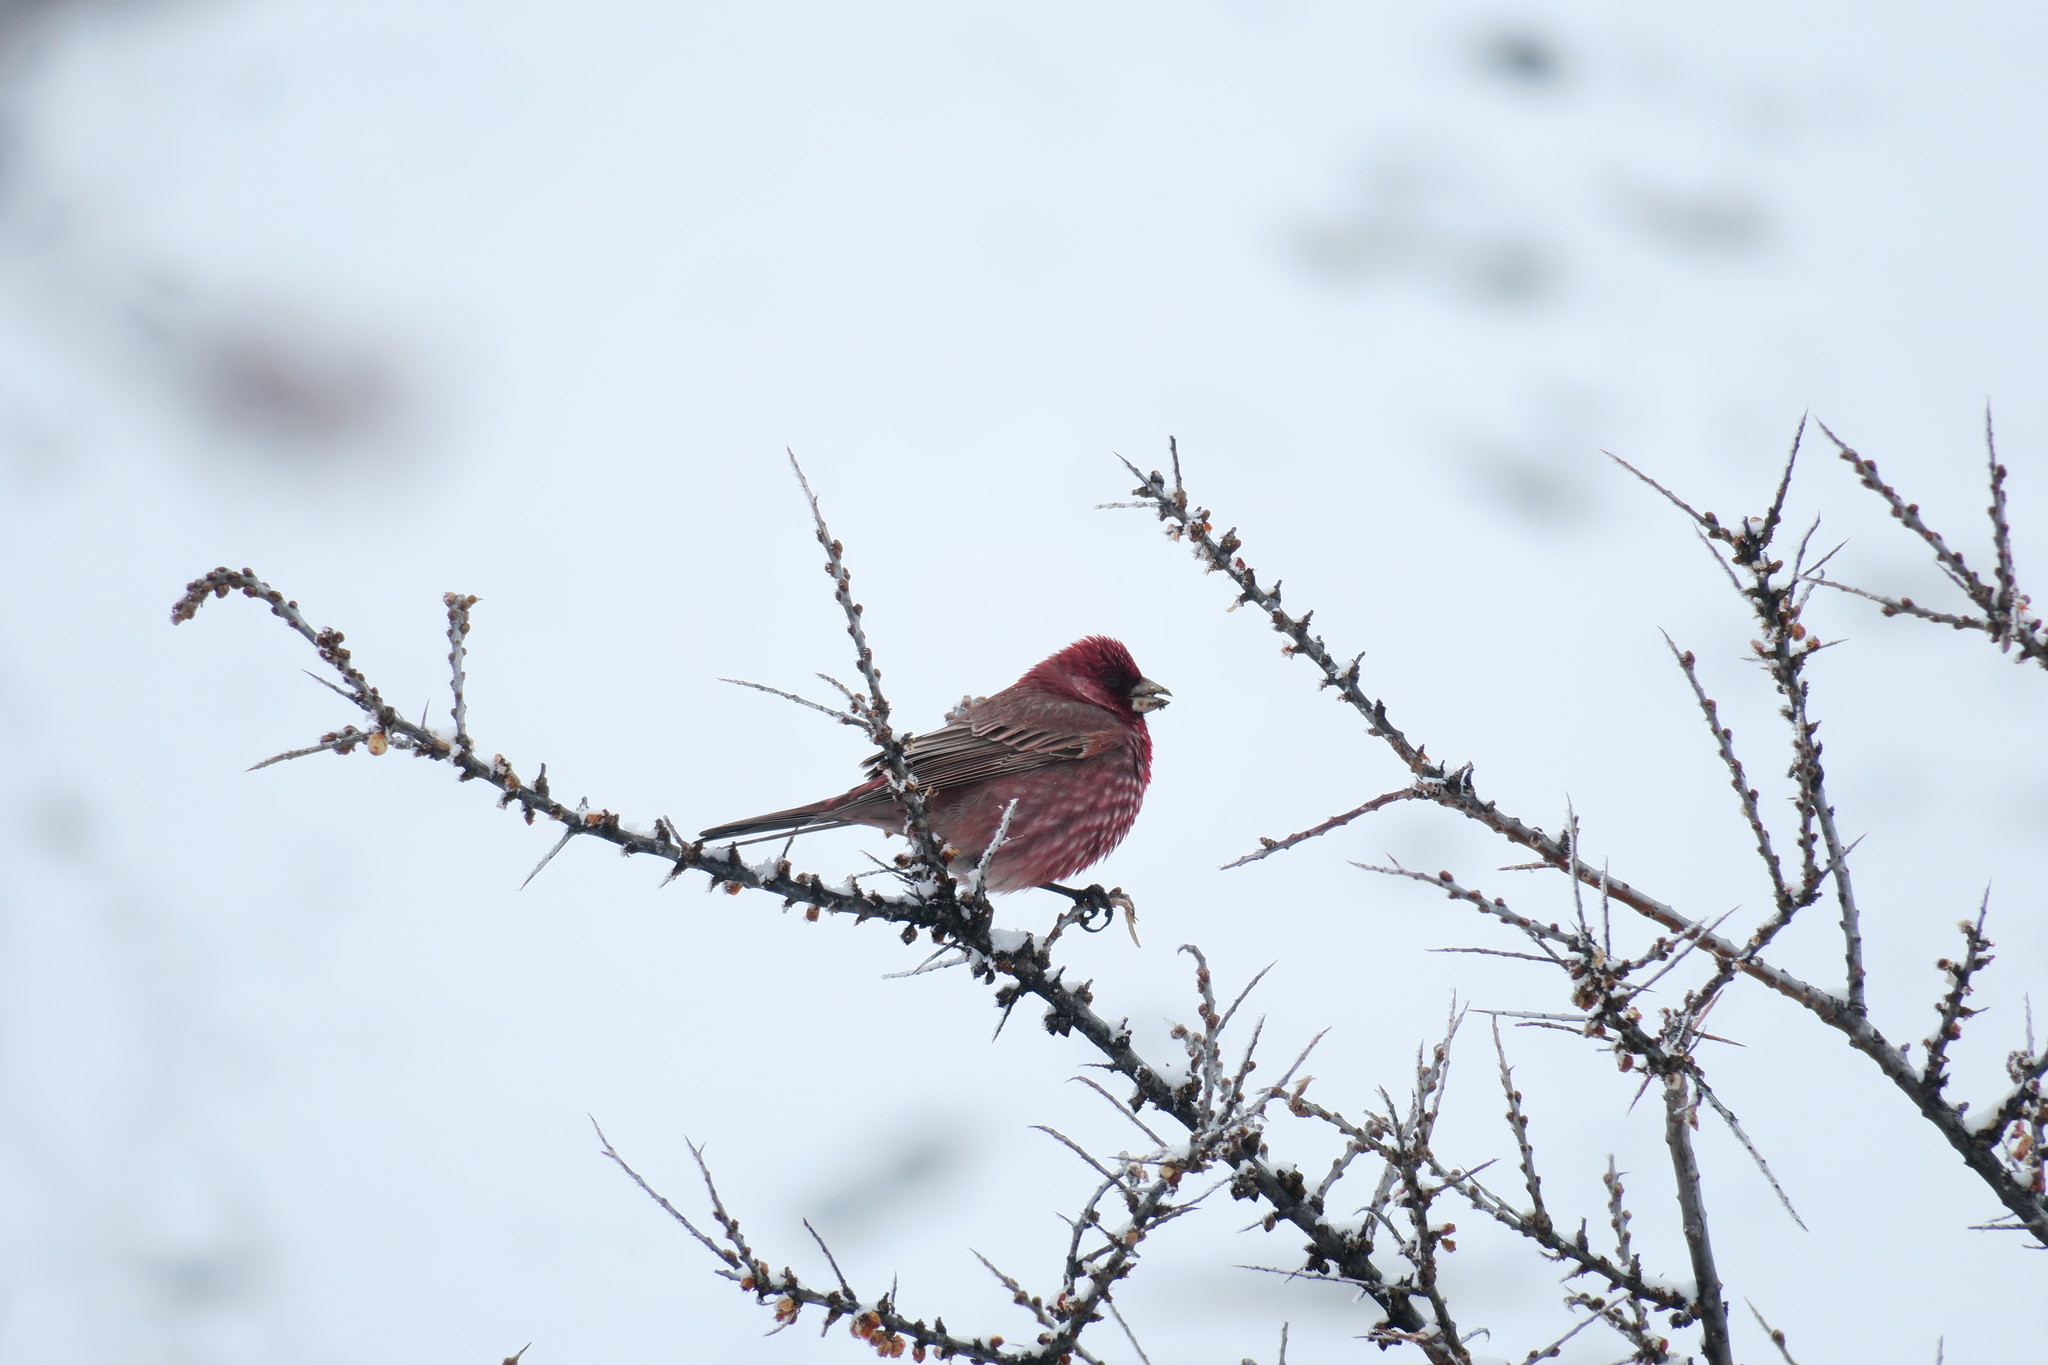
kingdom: Animalia
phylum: Chordata
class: Aves
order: Passeriformes
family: Fringillidae
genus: Carpodacus
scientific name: Carpodacus rubicilla
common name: Great rosefinch
